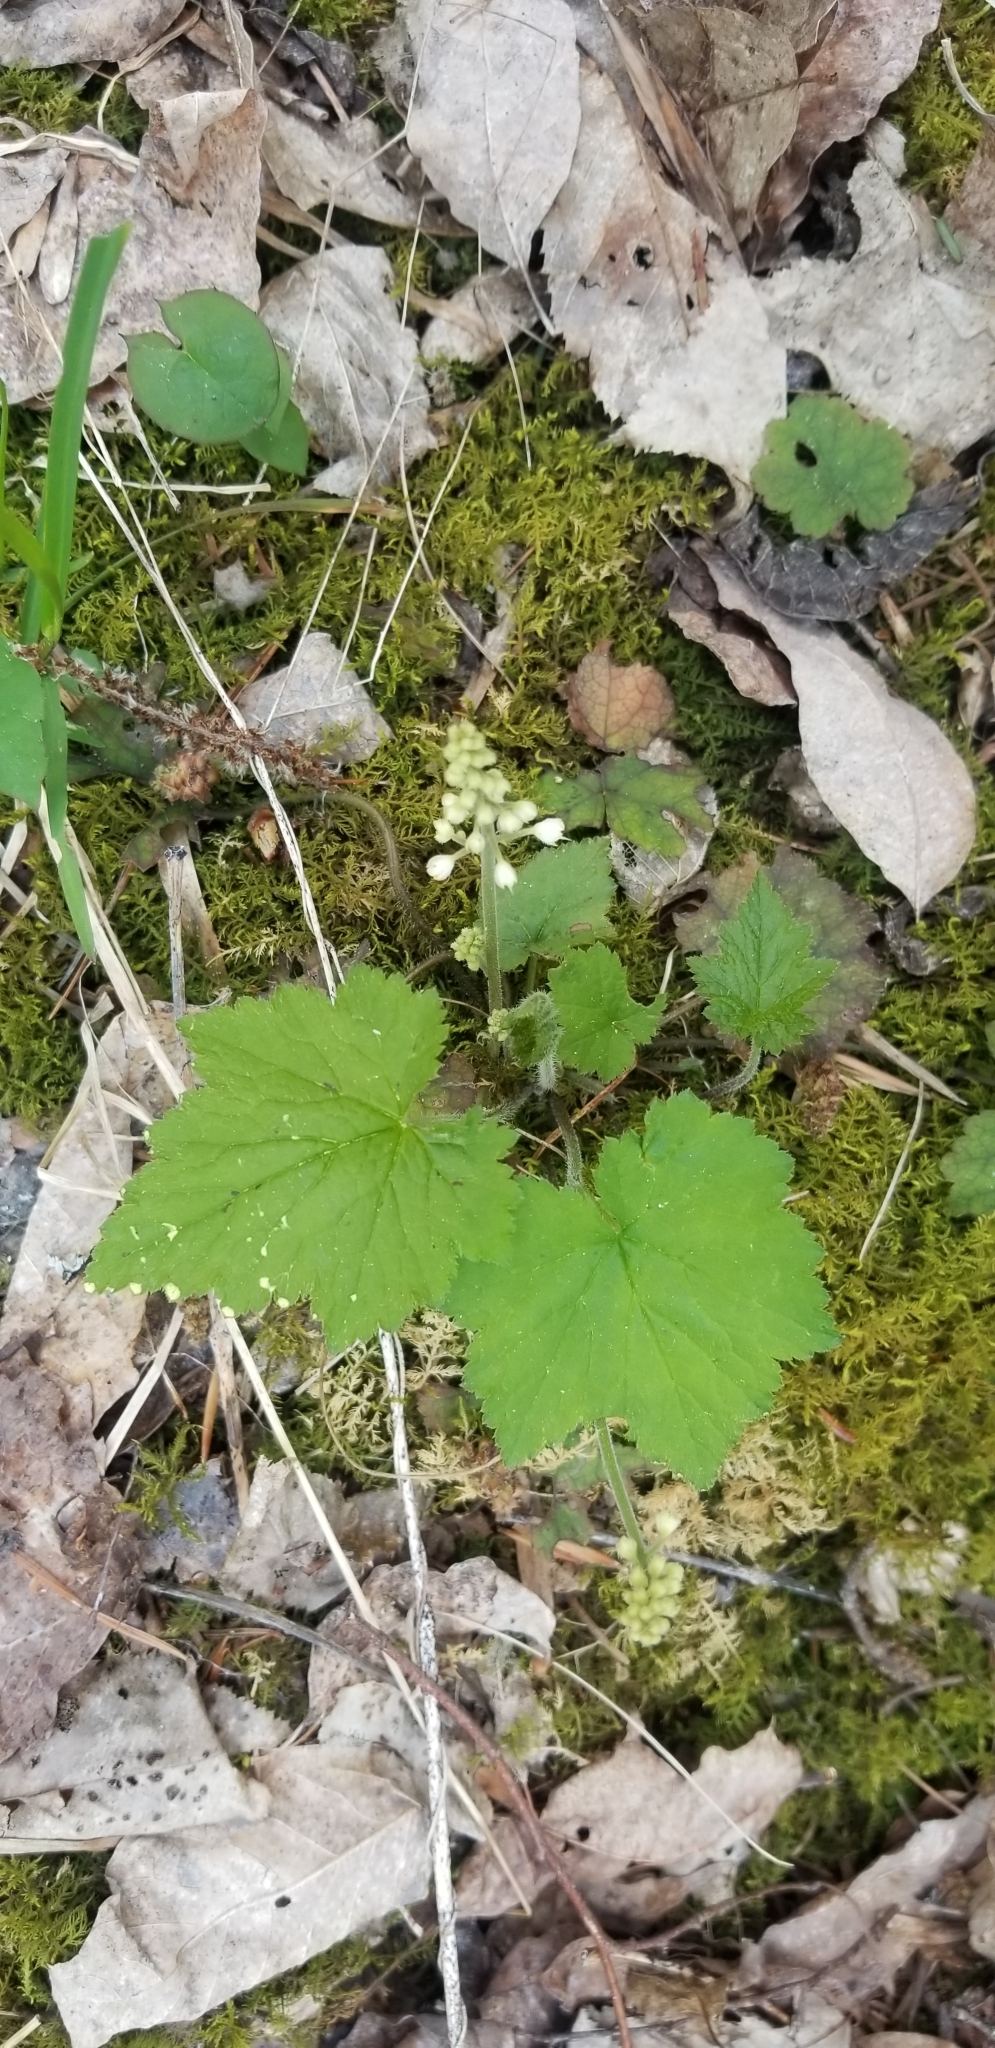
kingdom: Plantae
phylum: Tracheophyta
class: Magnoliopsida
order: Saxifragales
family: Saxifragaceae
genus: Tiarella
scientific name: Tiarella stolonifera
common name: Stoloniferous foamflower
